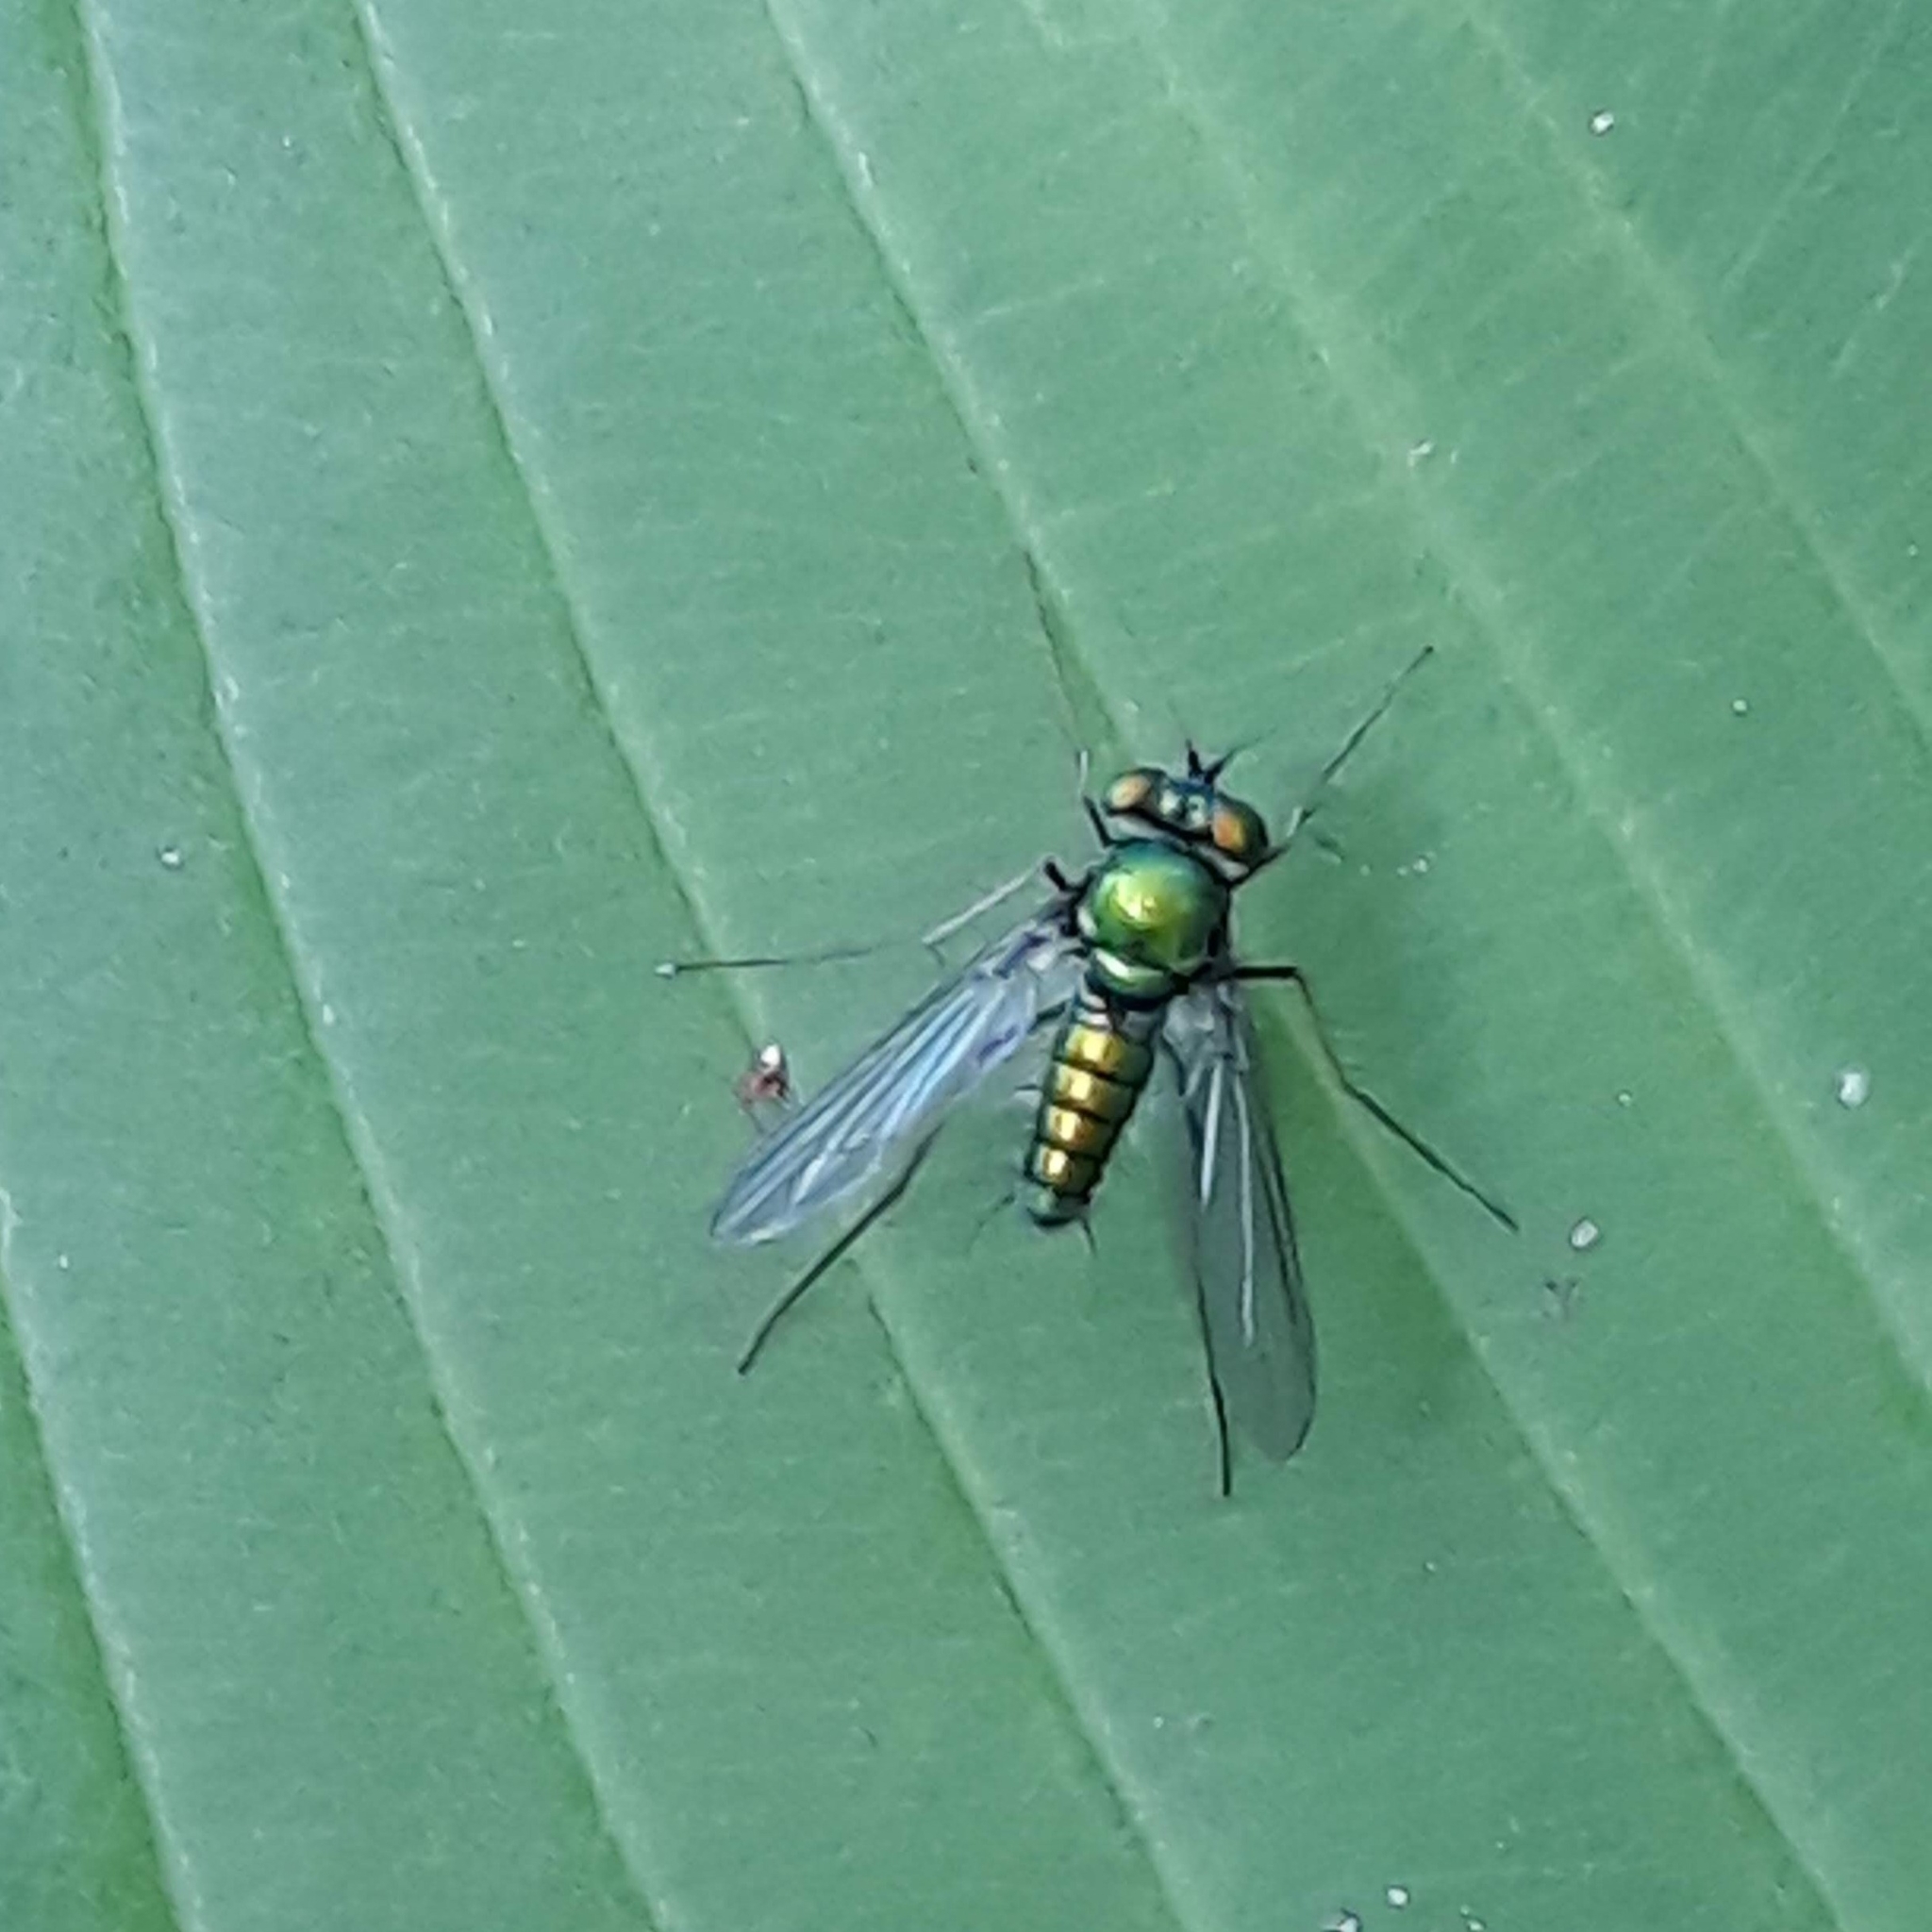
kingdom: Animalia
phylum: Arthropoda
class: Insecta
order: Diptera
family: Dolichopodidae
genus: Condylostylus
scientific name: Condylostylus comatus
